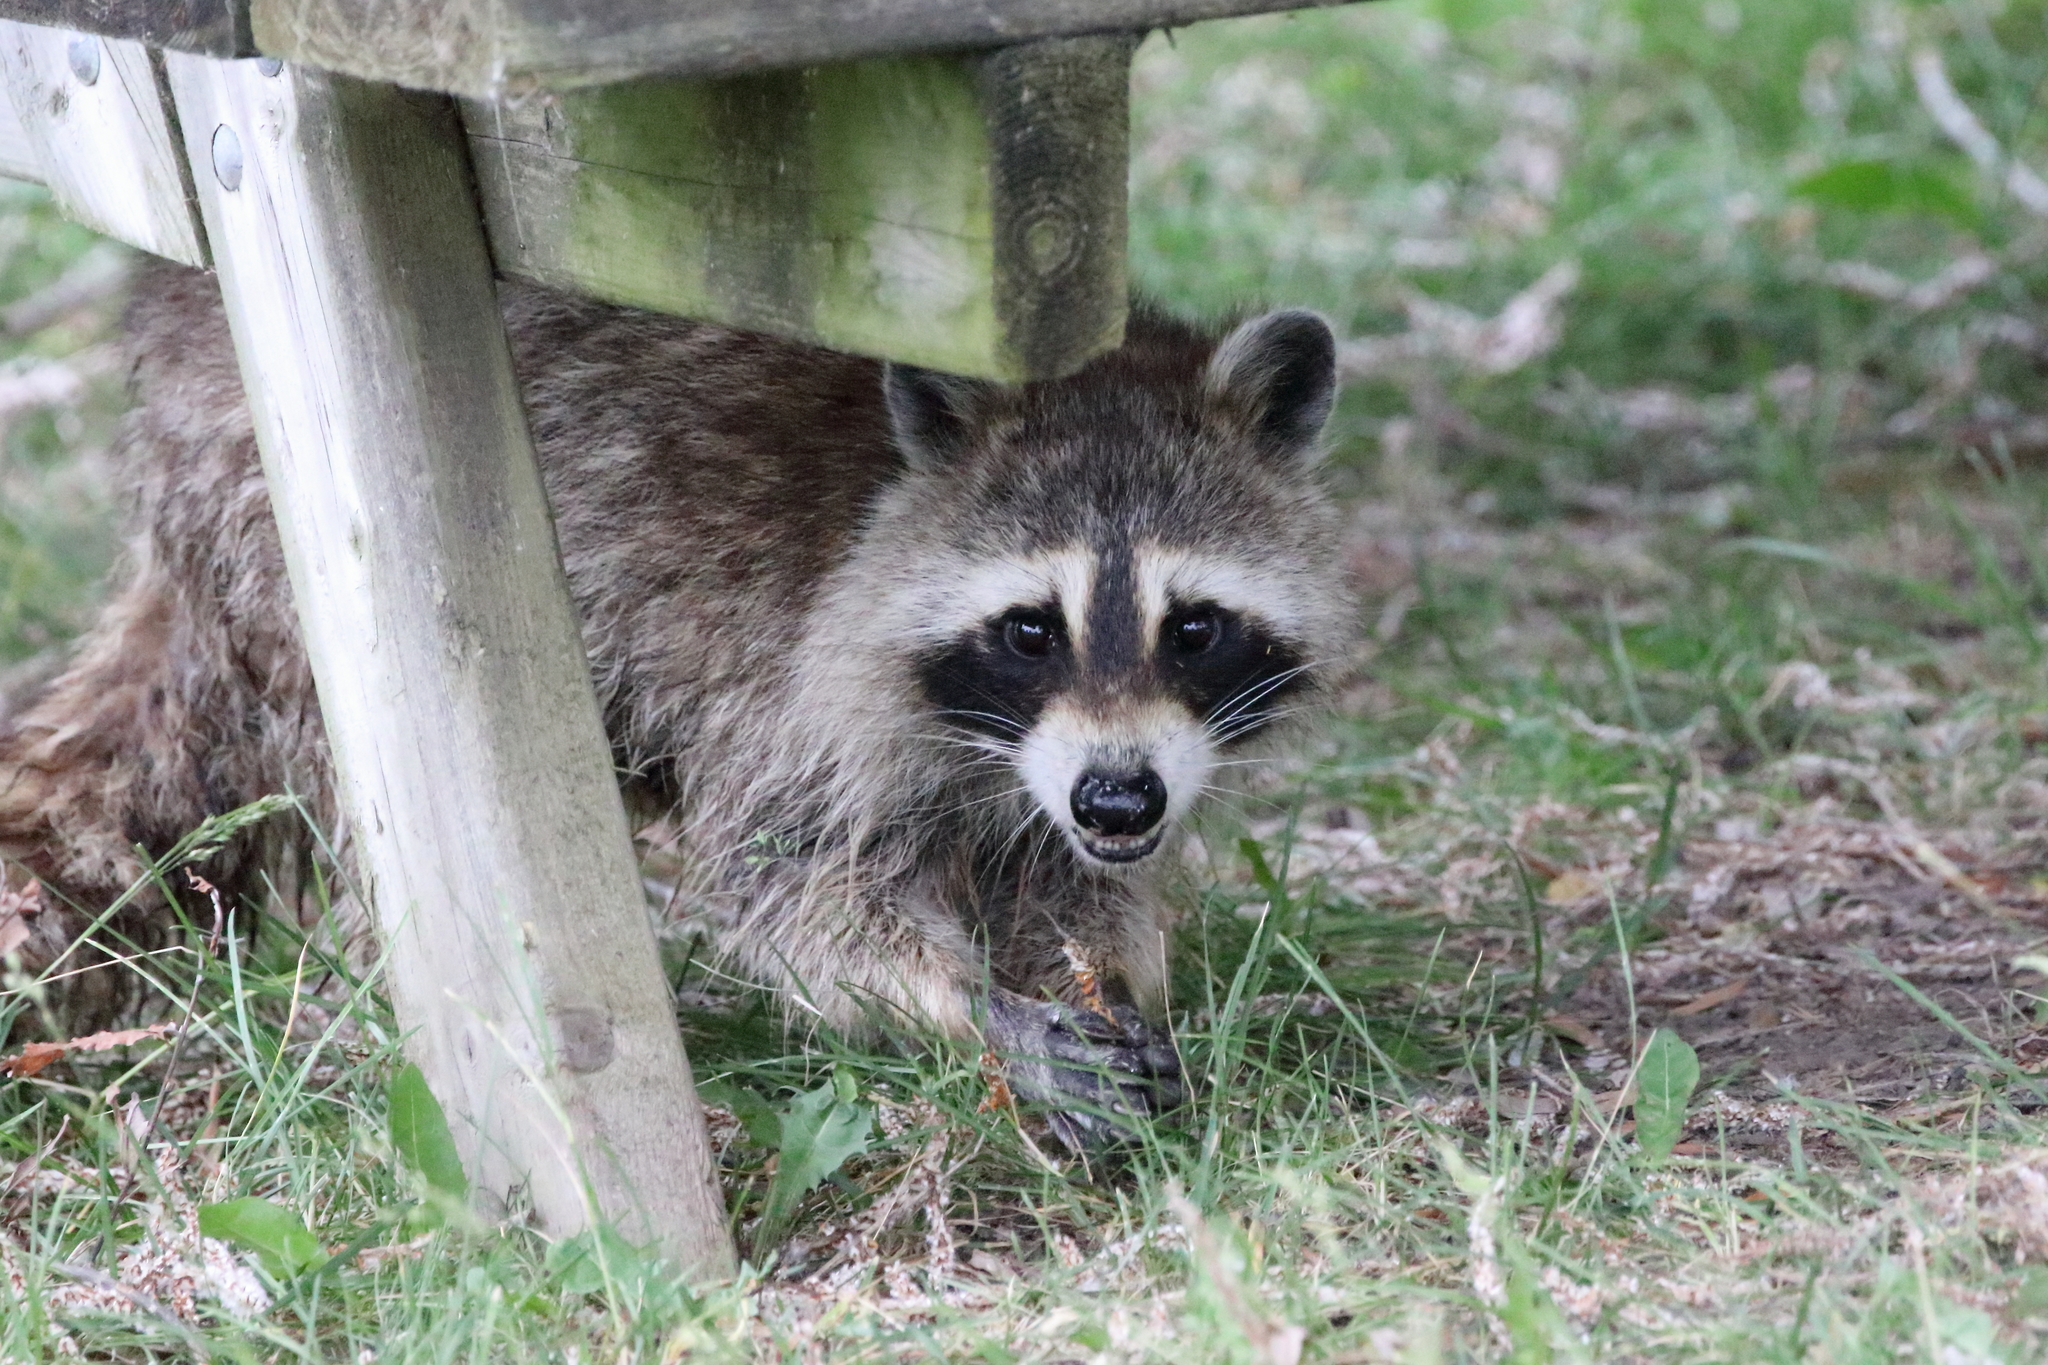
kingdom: Animalia
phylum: Chordata
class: Mammalia
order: Carnivora
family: Procyonidae
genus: Procyon
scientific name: Procyon lotor
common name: Raccoon
